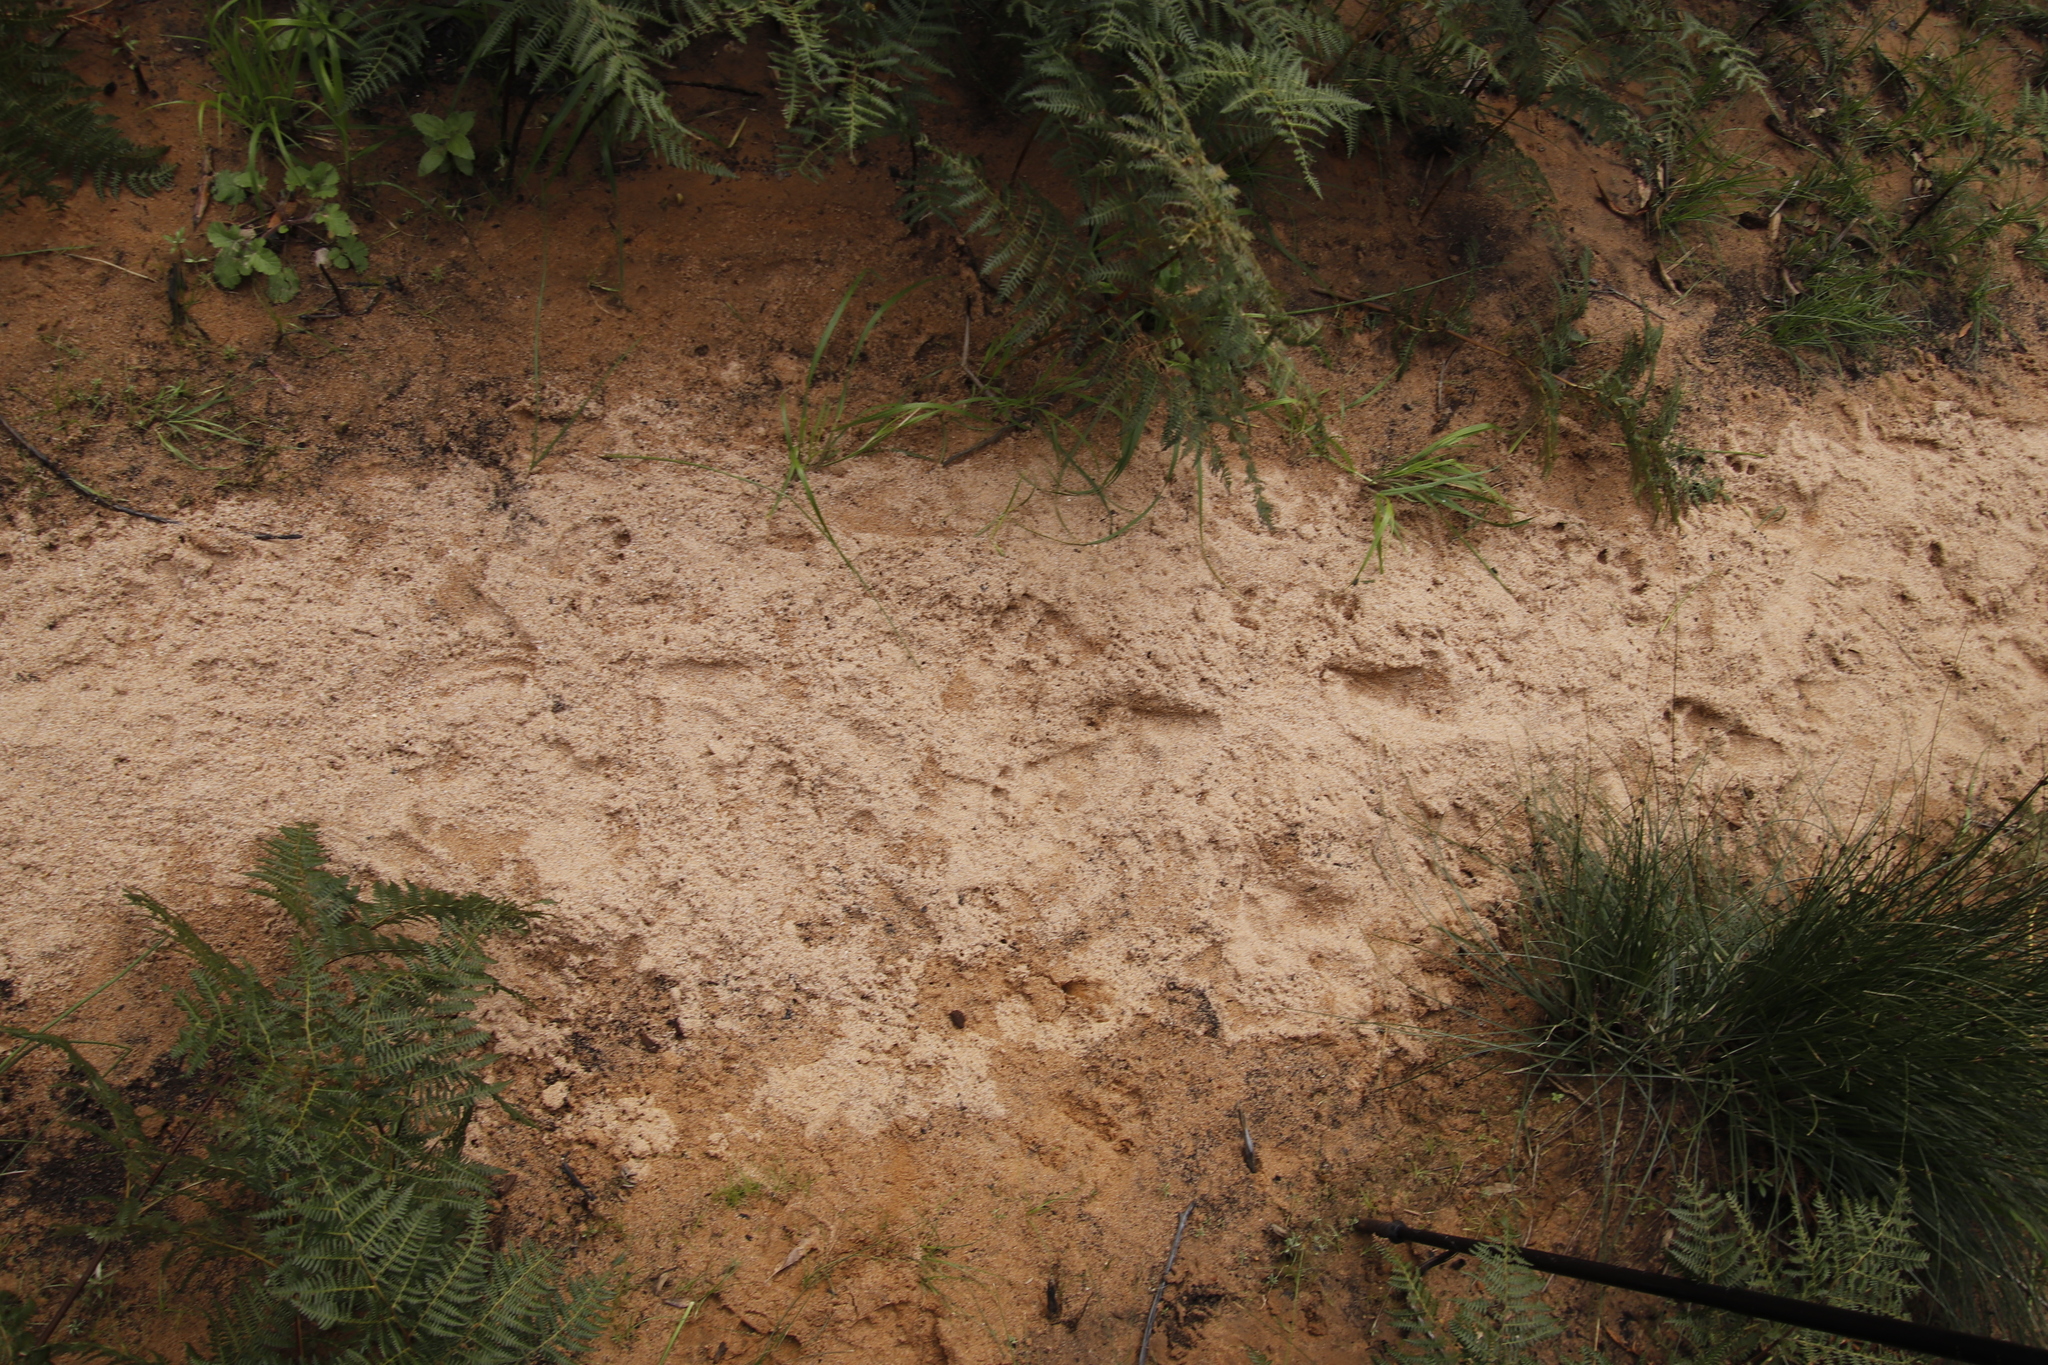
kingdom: Animalia
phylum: Chordata
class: Mammalia
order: Primates
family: Cercopithecidae
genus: Papio
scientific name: Papio ursinus
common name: Chacma baboon
